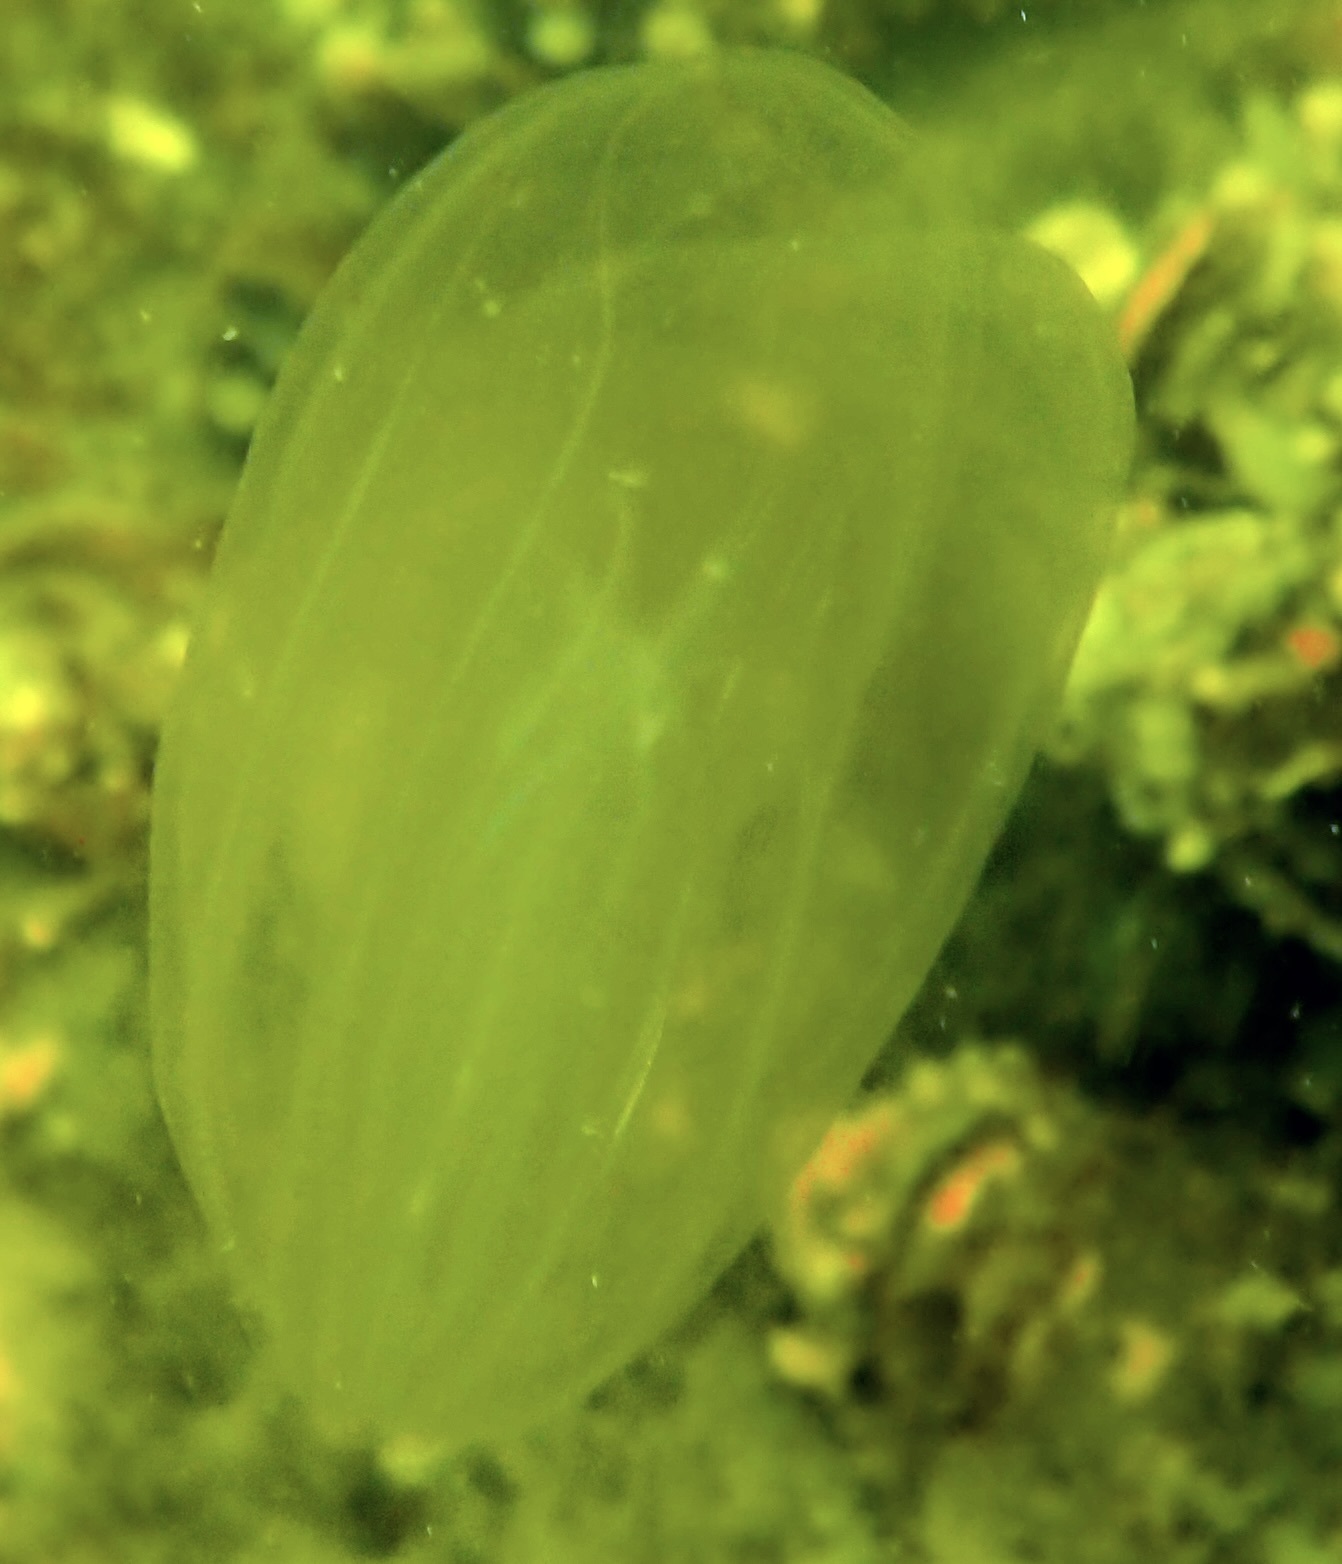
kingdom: Animalia
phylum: Ctenophora
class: Tentaculata
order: Lobata
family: Bolinopsidae
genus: Mnemiopsis
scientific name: Mnemiopsis leidyi
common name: American comb jelly
